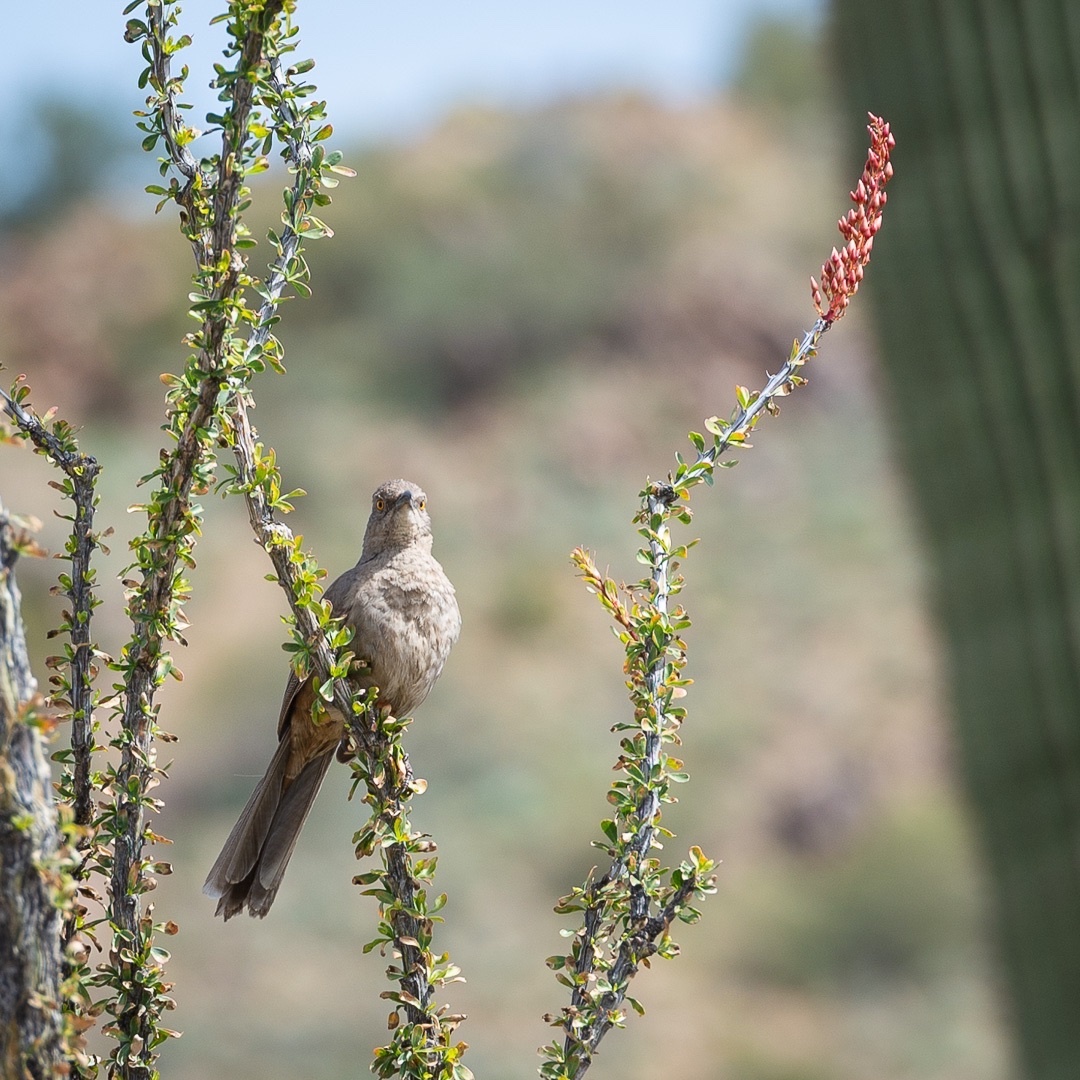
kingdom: Animalia
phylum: Chordata
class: Aves
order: Passeriformes
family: Mimidae
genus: Toxostoma
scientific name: Toxostoma curvirostre
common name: Curve-billed thrasher
